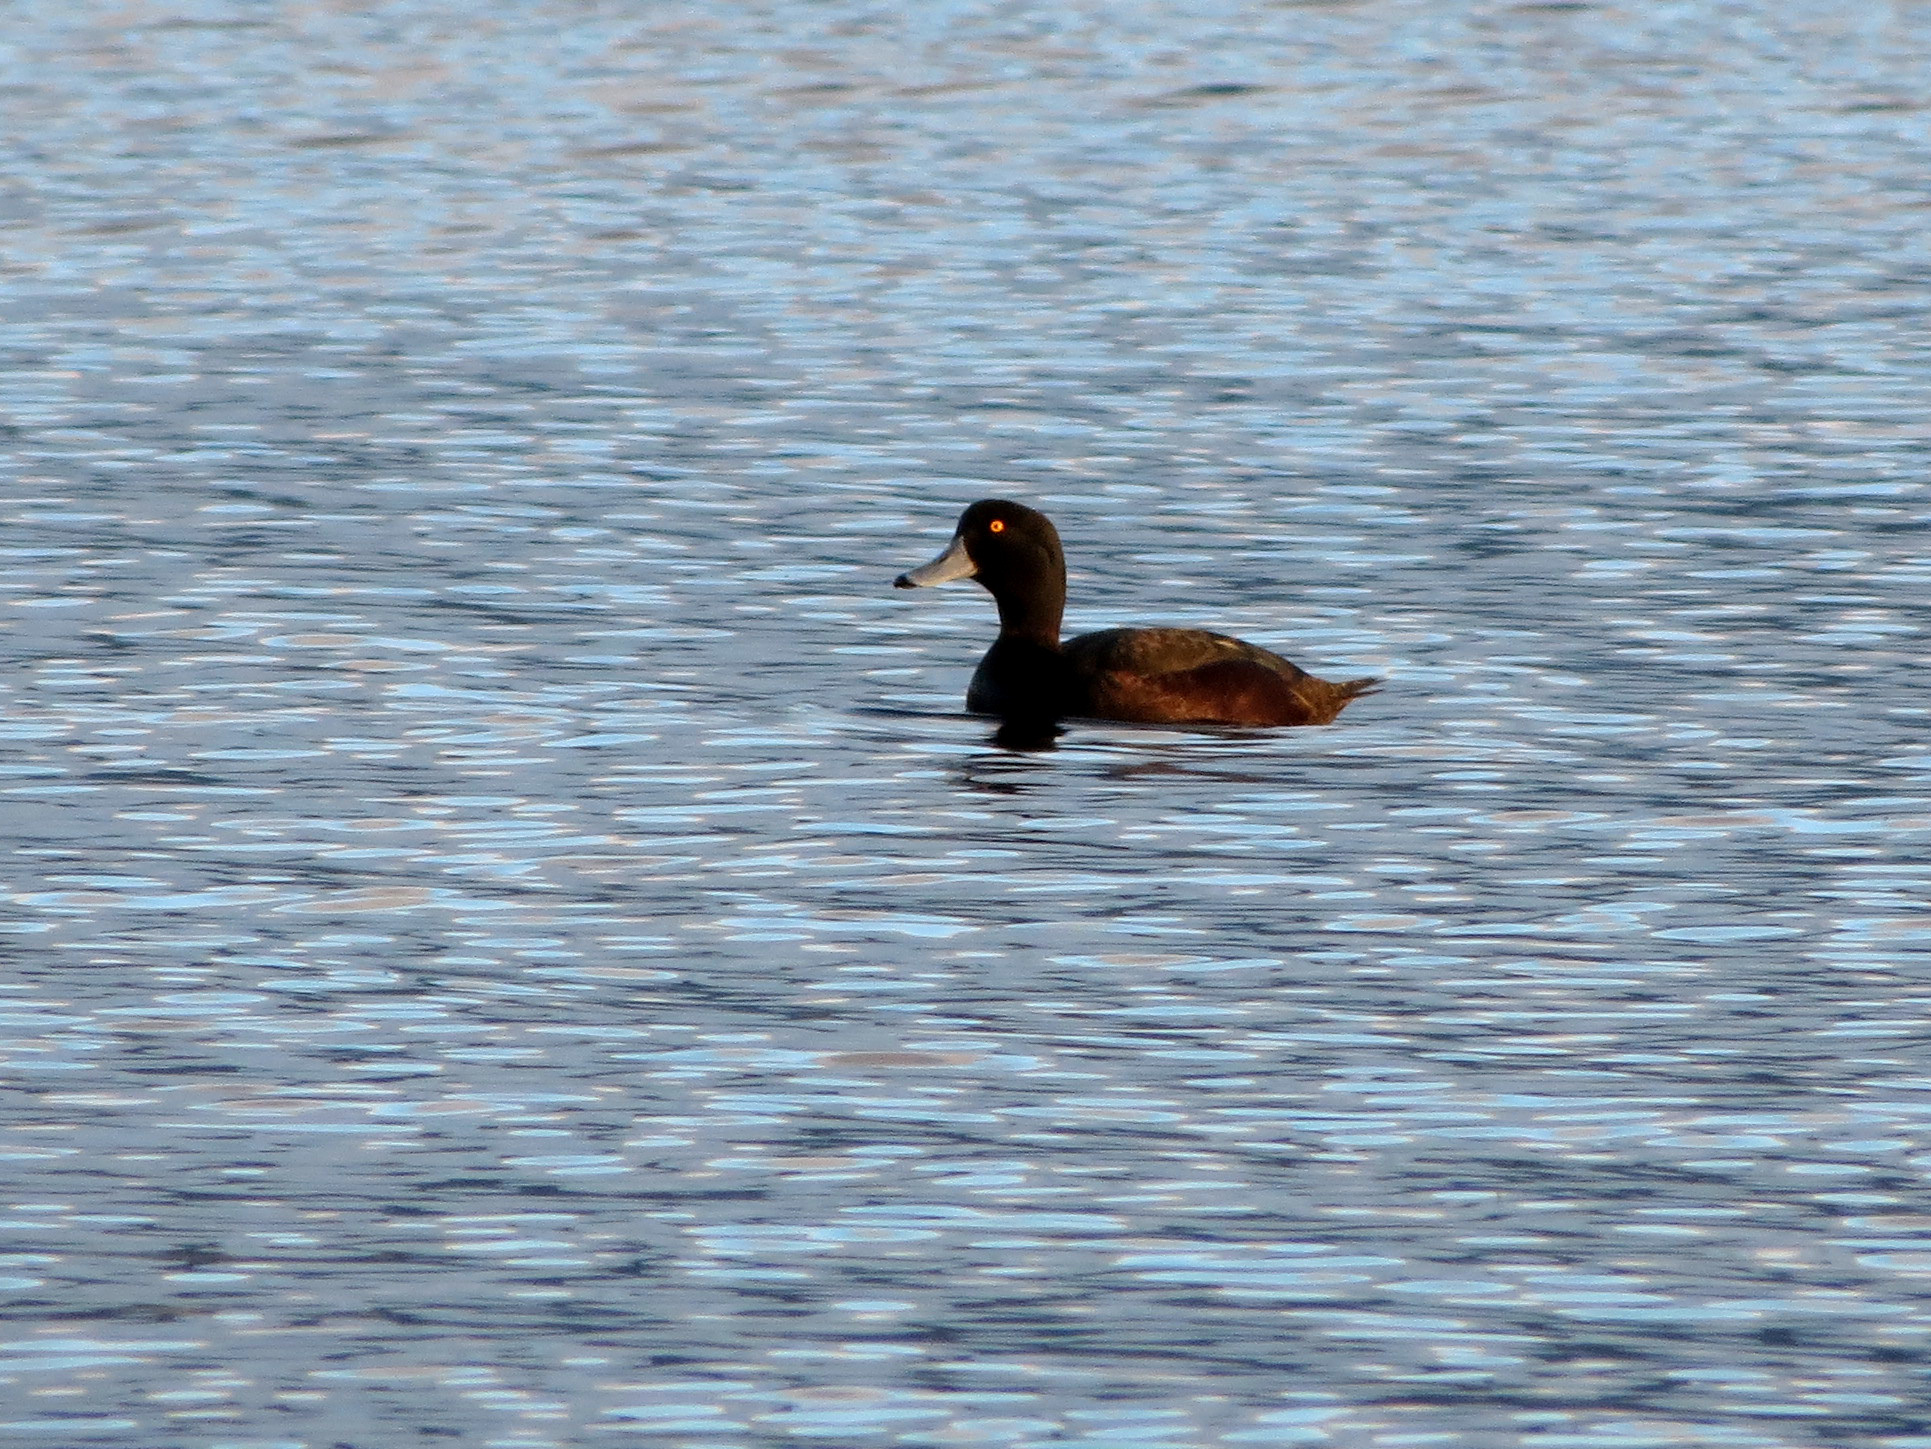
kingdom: Animalia
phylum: Chordata
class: Aves
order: Anseriformes
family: Anatidae
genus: Aythya
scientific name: Aythya novaeseelandiae
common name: New zealand scaup
